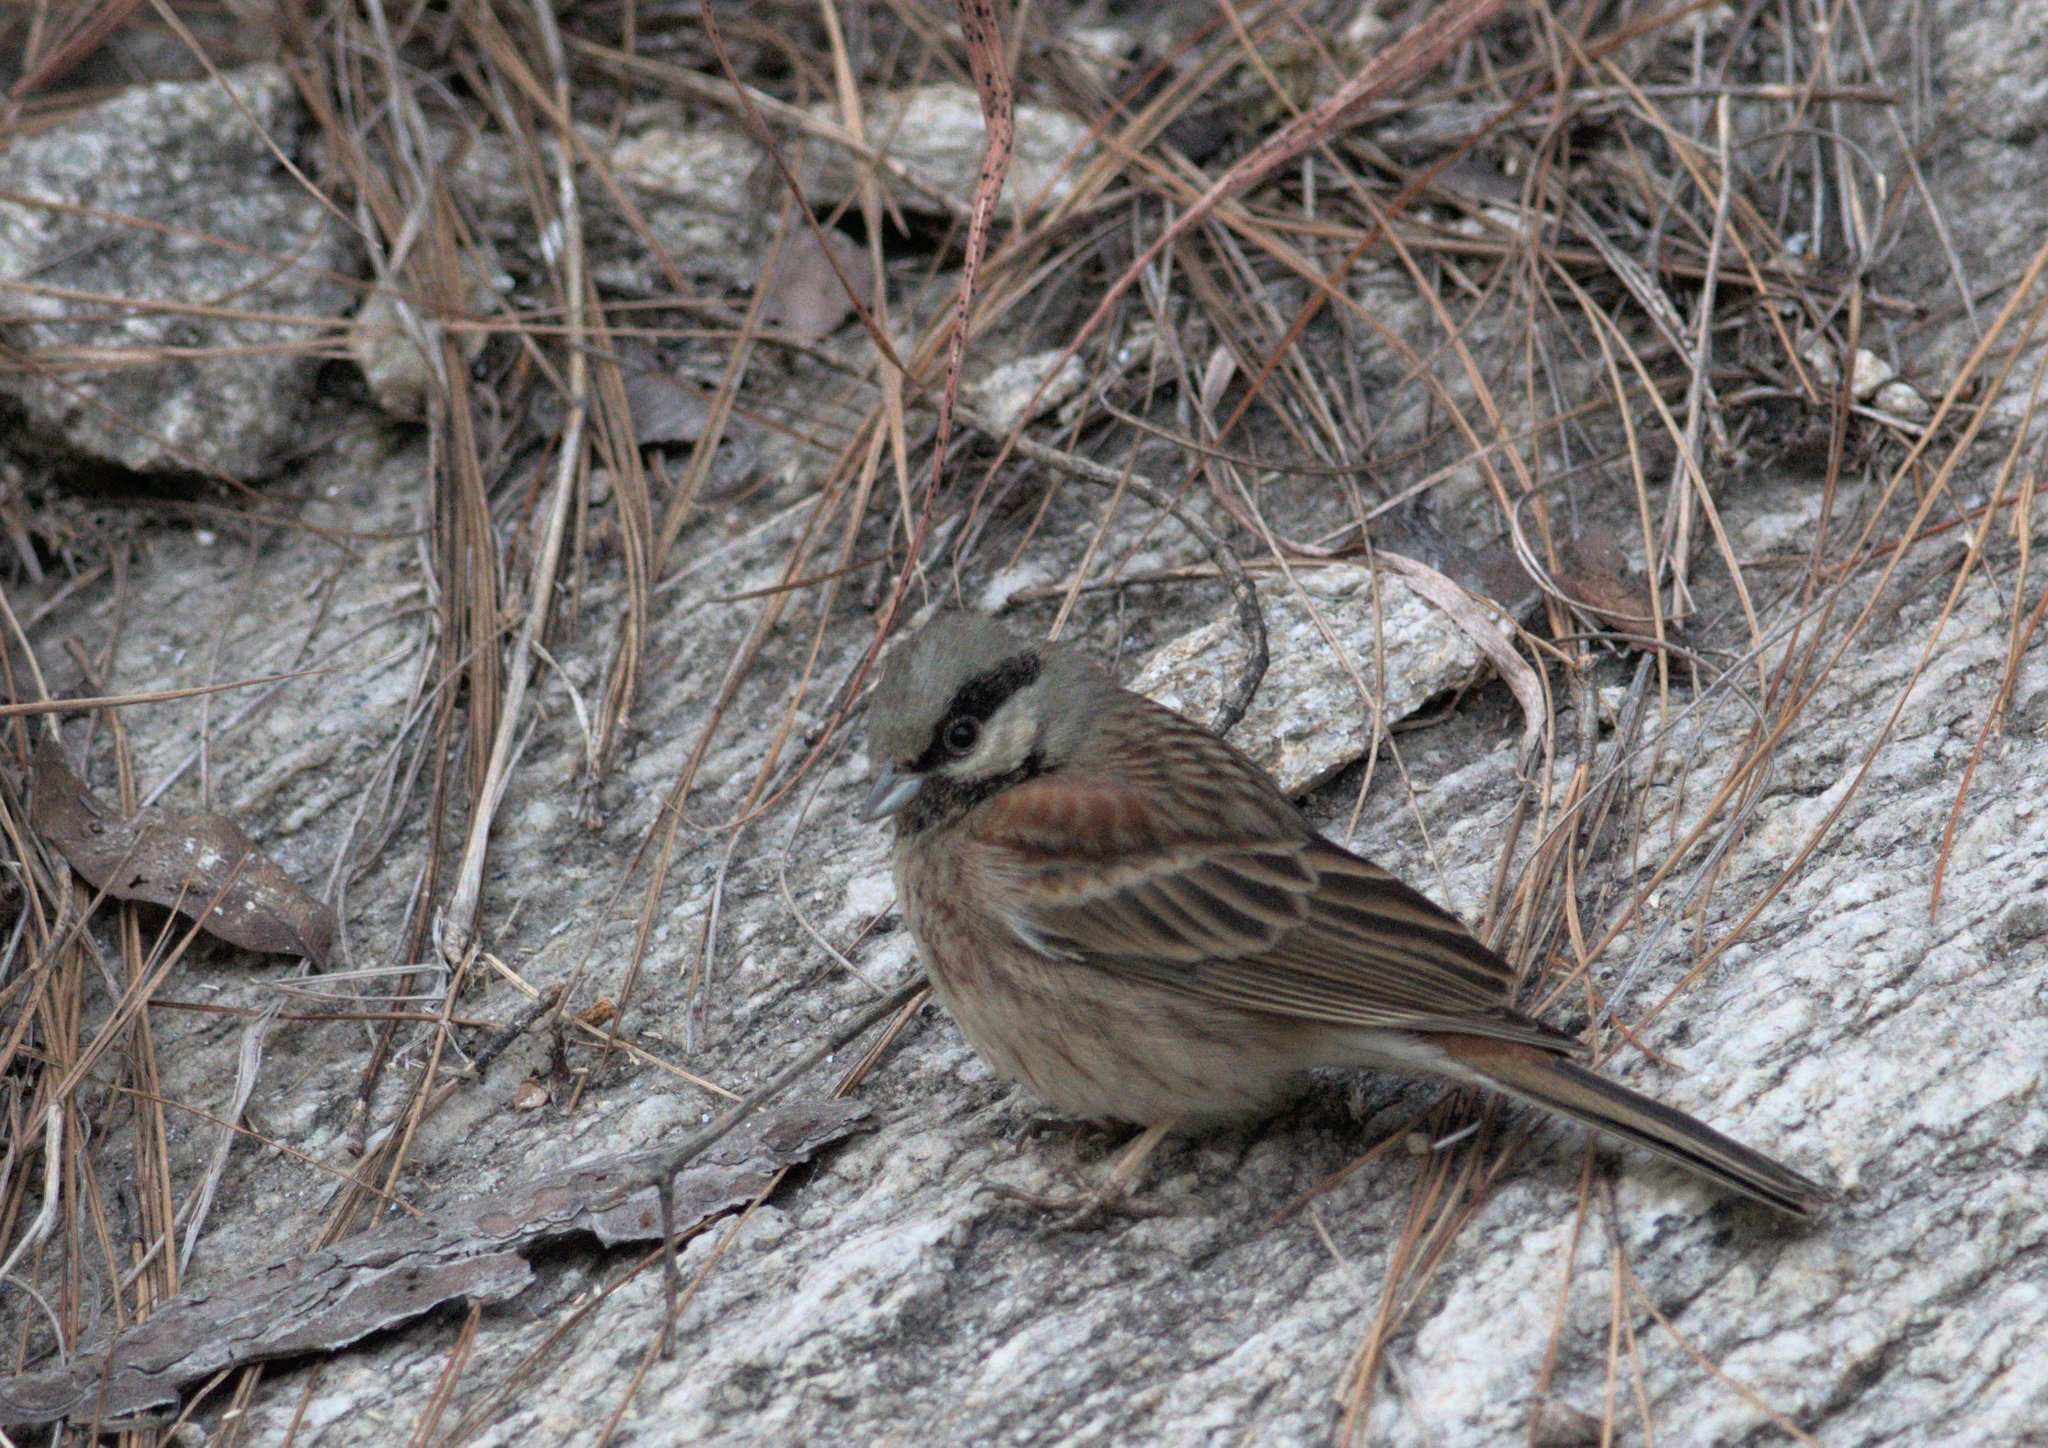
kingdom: Animalia
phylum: Chordata
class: Aves
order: Passeriformes
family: Emberizidae
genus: Emberiza
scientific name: Emberiza stewarti
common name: White-capped bunting
